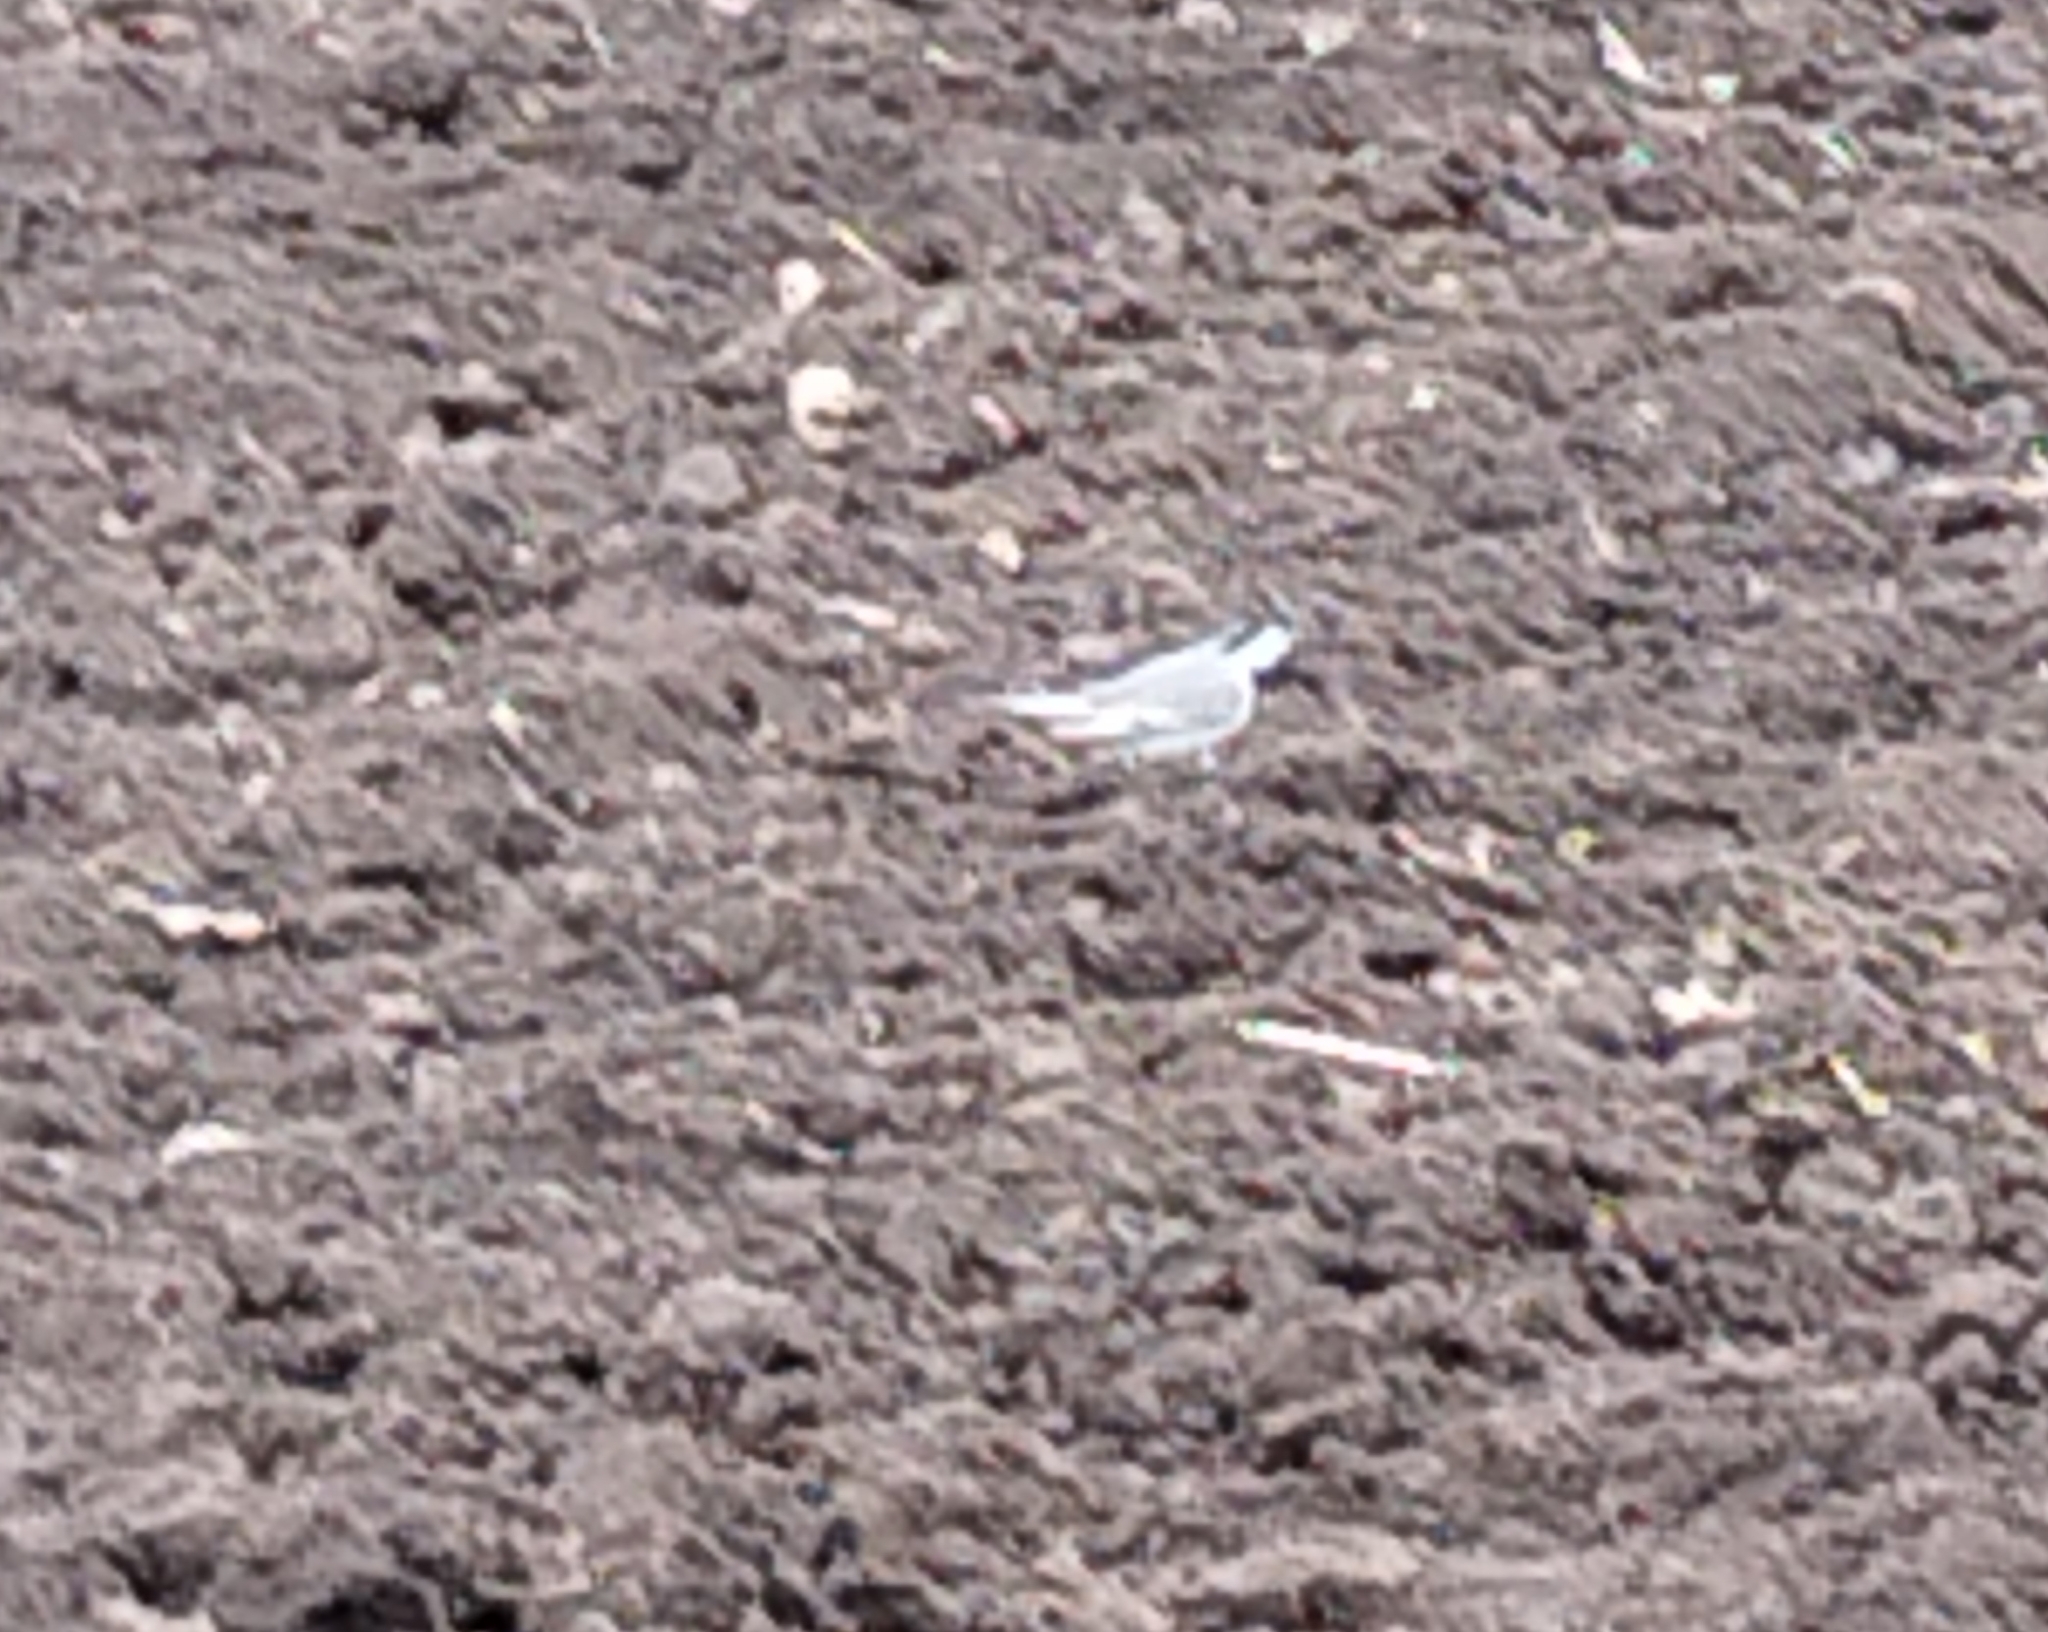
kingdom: Animalia
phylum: Chordata
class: Aves
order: Passeriformes
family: Motacillidae
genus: Motacilla
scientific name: Motacilla alba
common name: White wagtail
